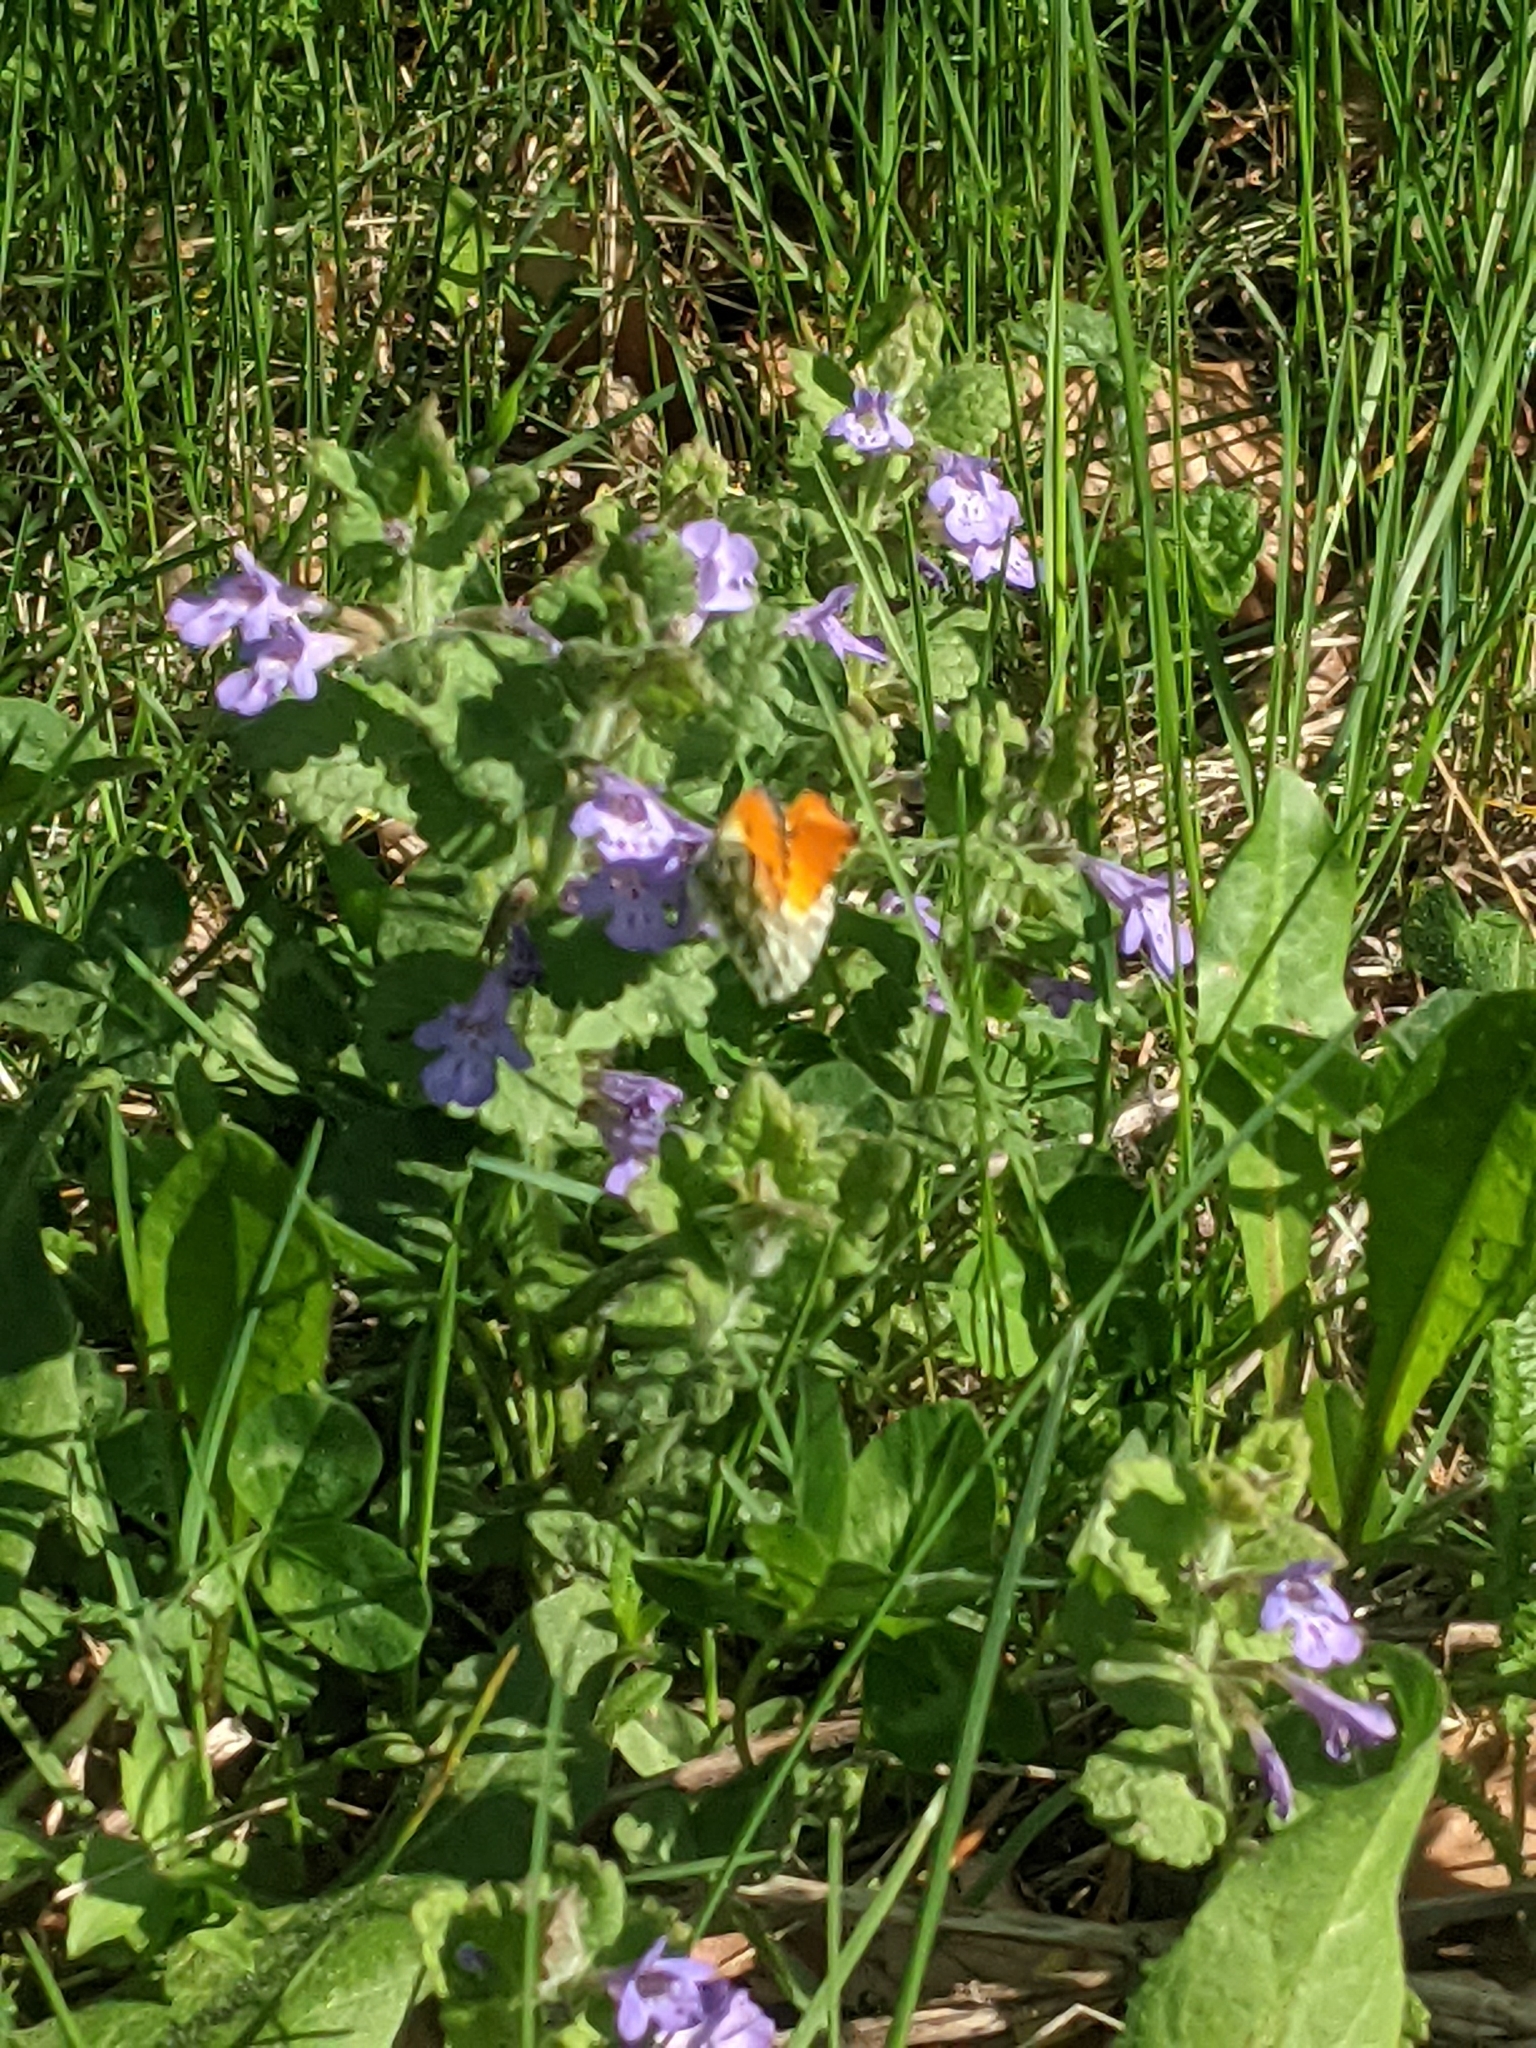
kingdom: Animalia
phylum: Arthropoda
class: Insecta
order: Lepidoptera
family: Pieridae
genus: Anthocharis
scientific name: Anthocharis cardamines
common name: Orange-tip
